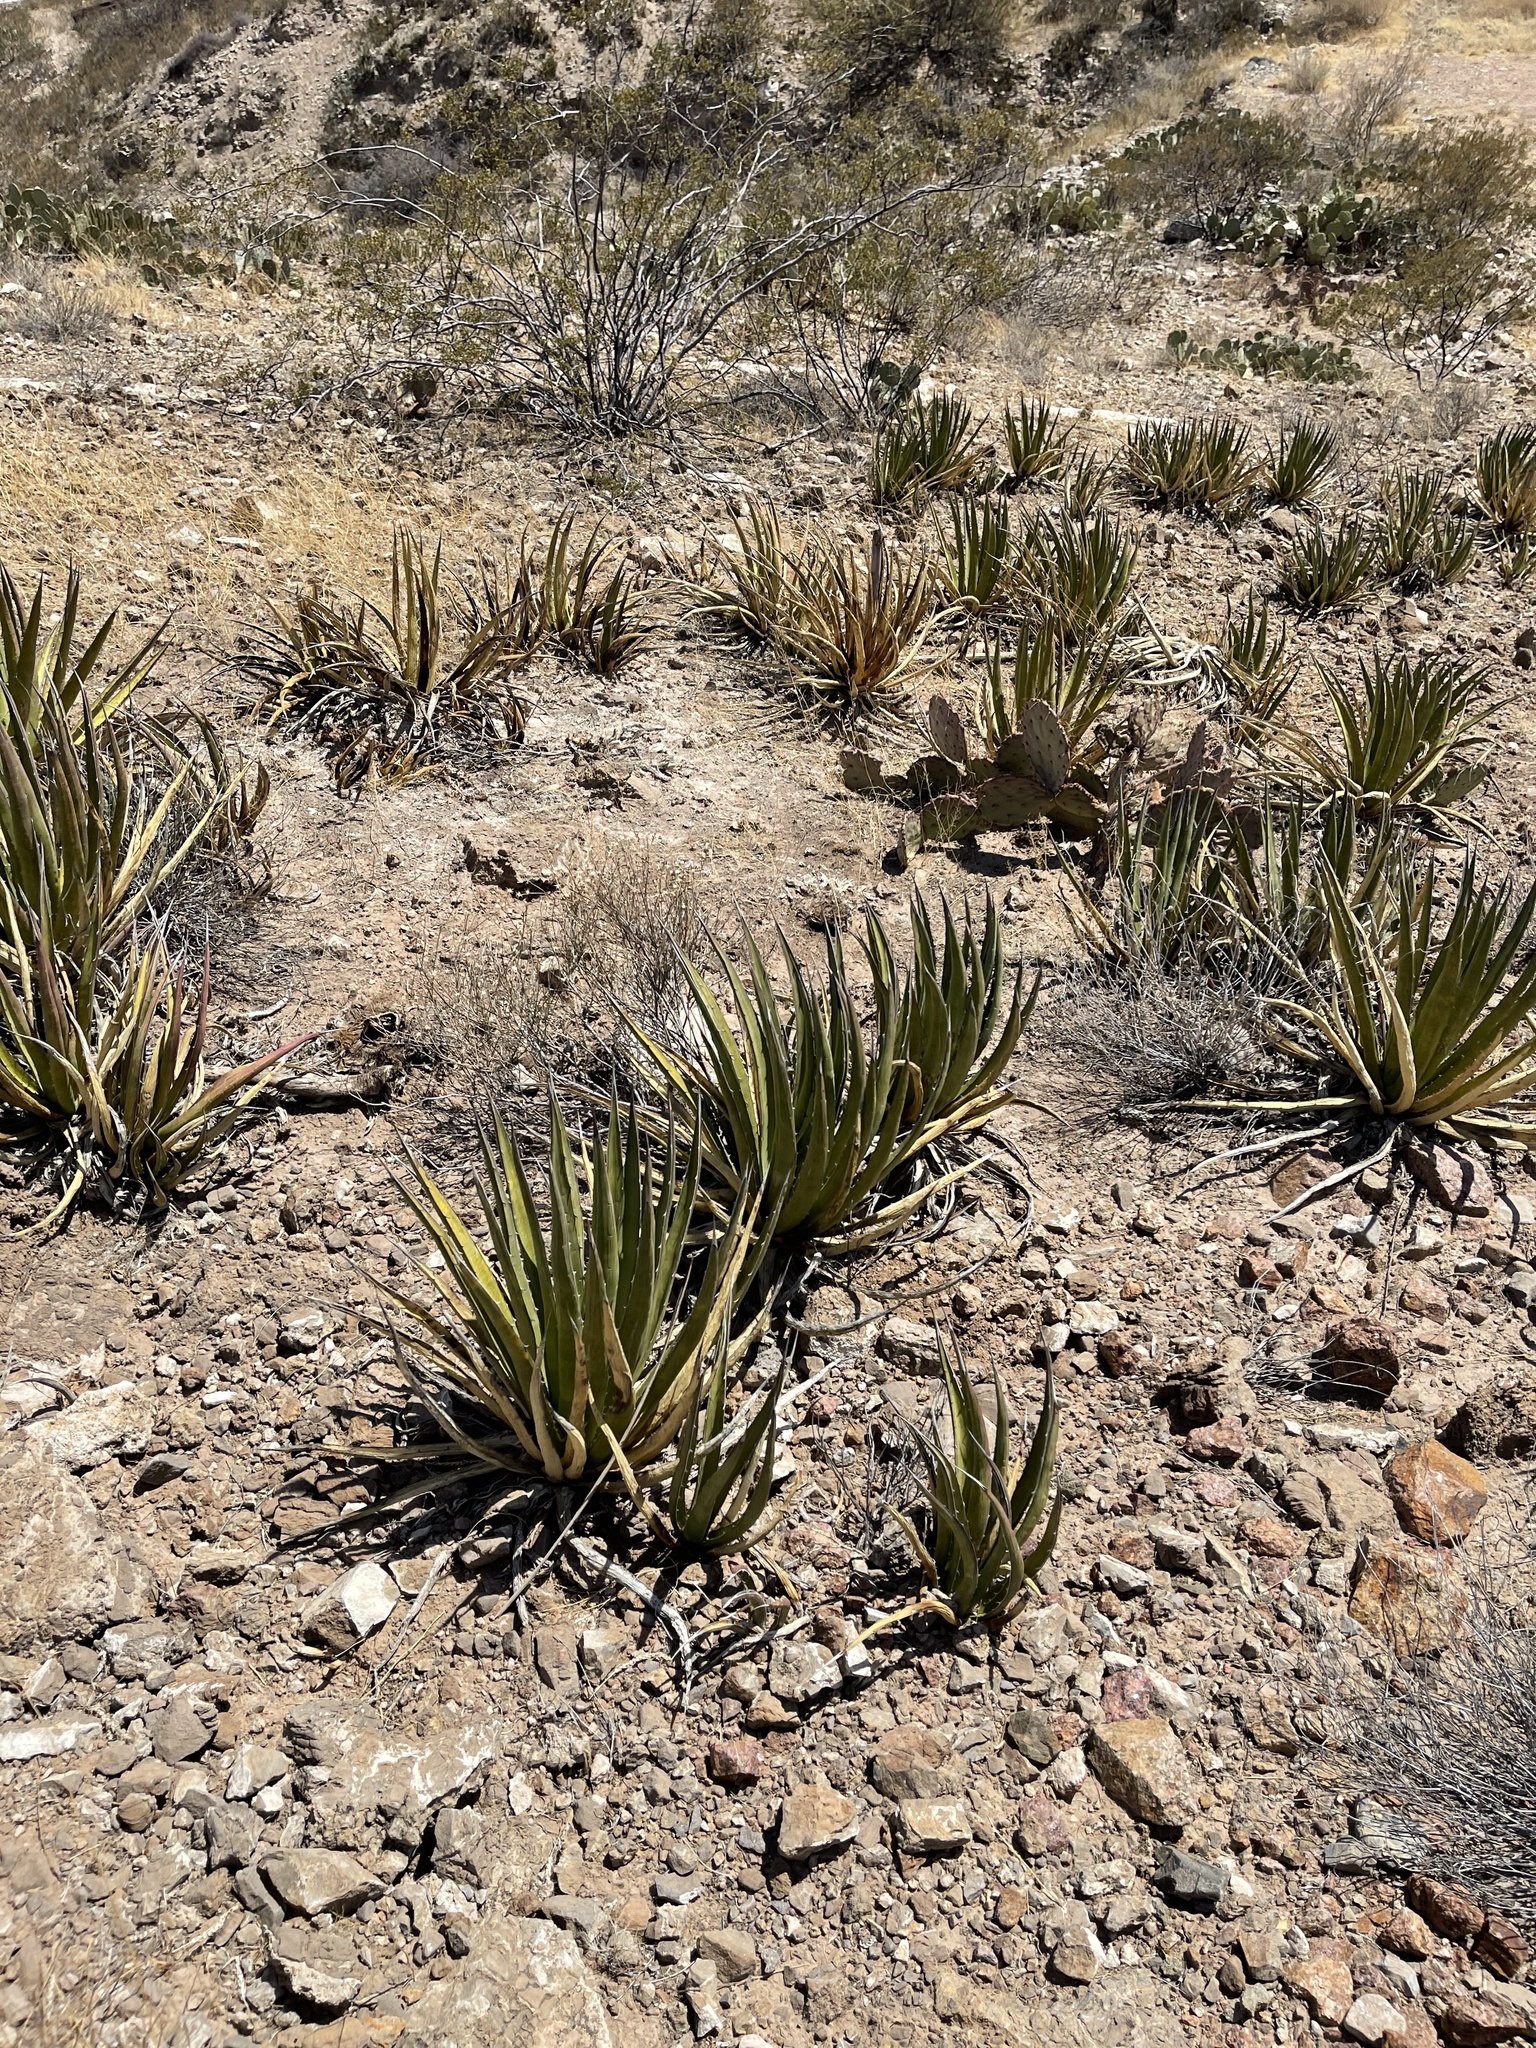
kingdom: Plantae
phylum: Tracheophyta
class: Liliopsida
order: Asparagales
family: Asparagaceae
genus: Agave
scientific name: Agave lechuguilla
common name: Lecheguilla agave
